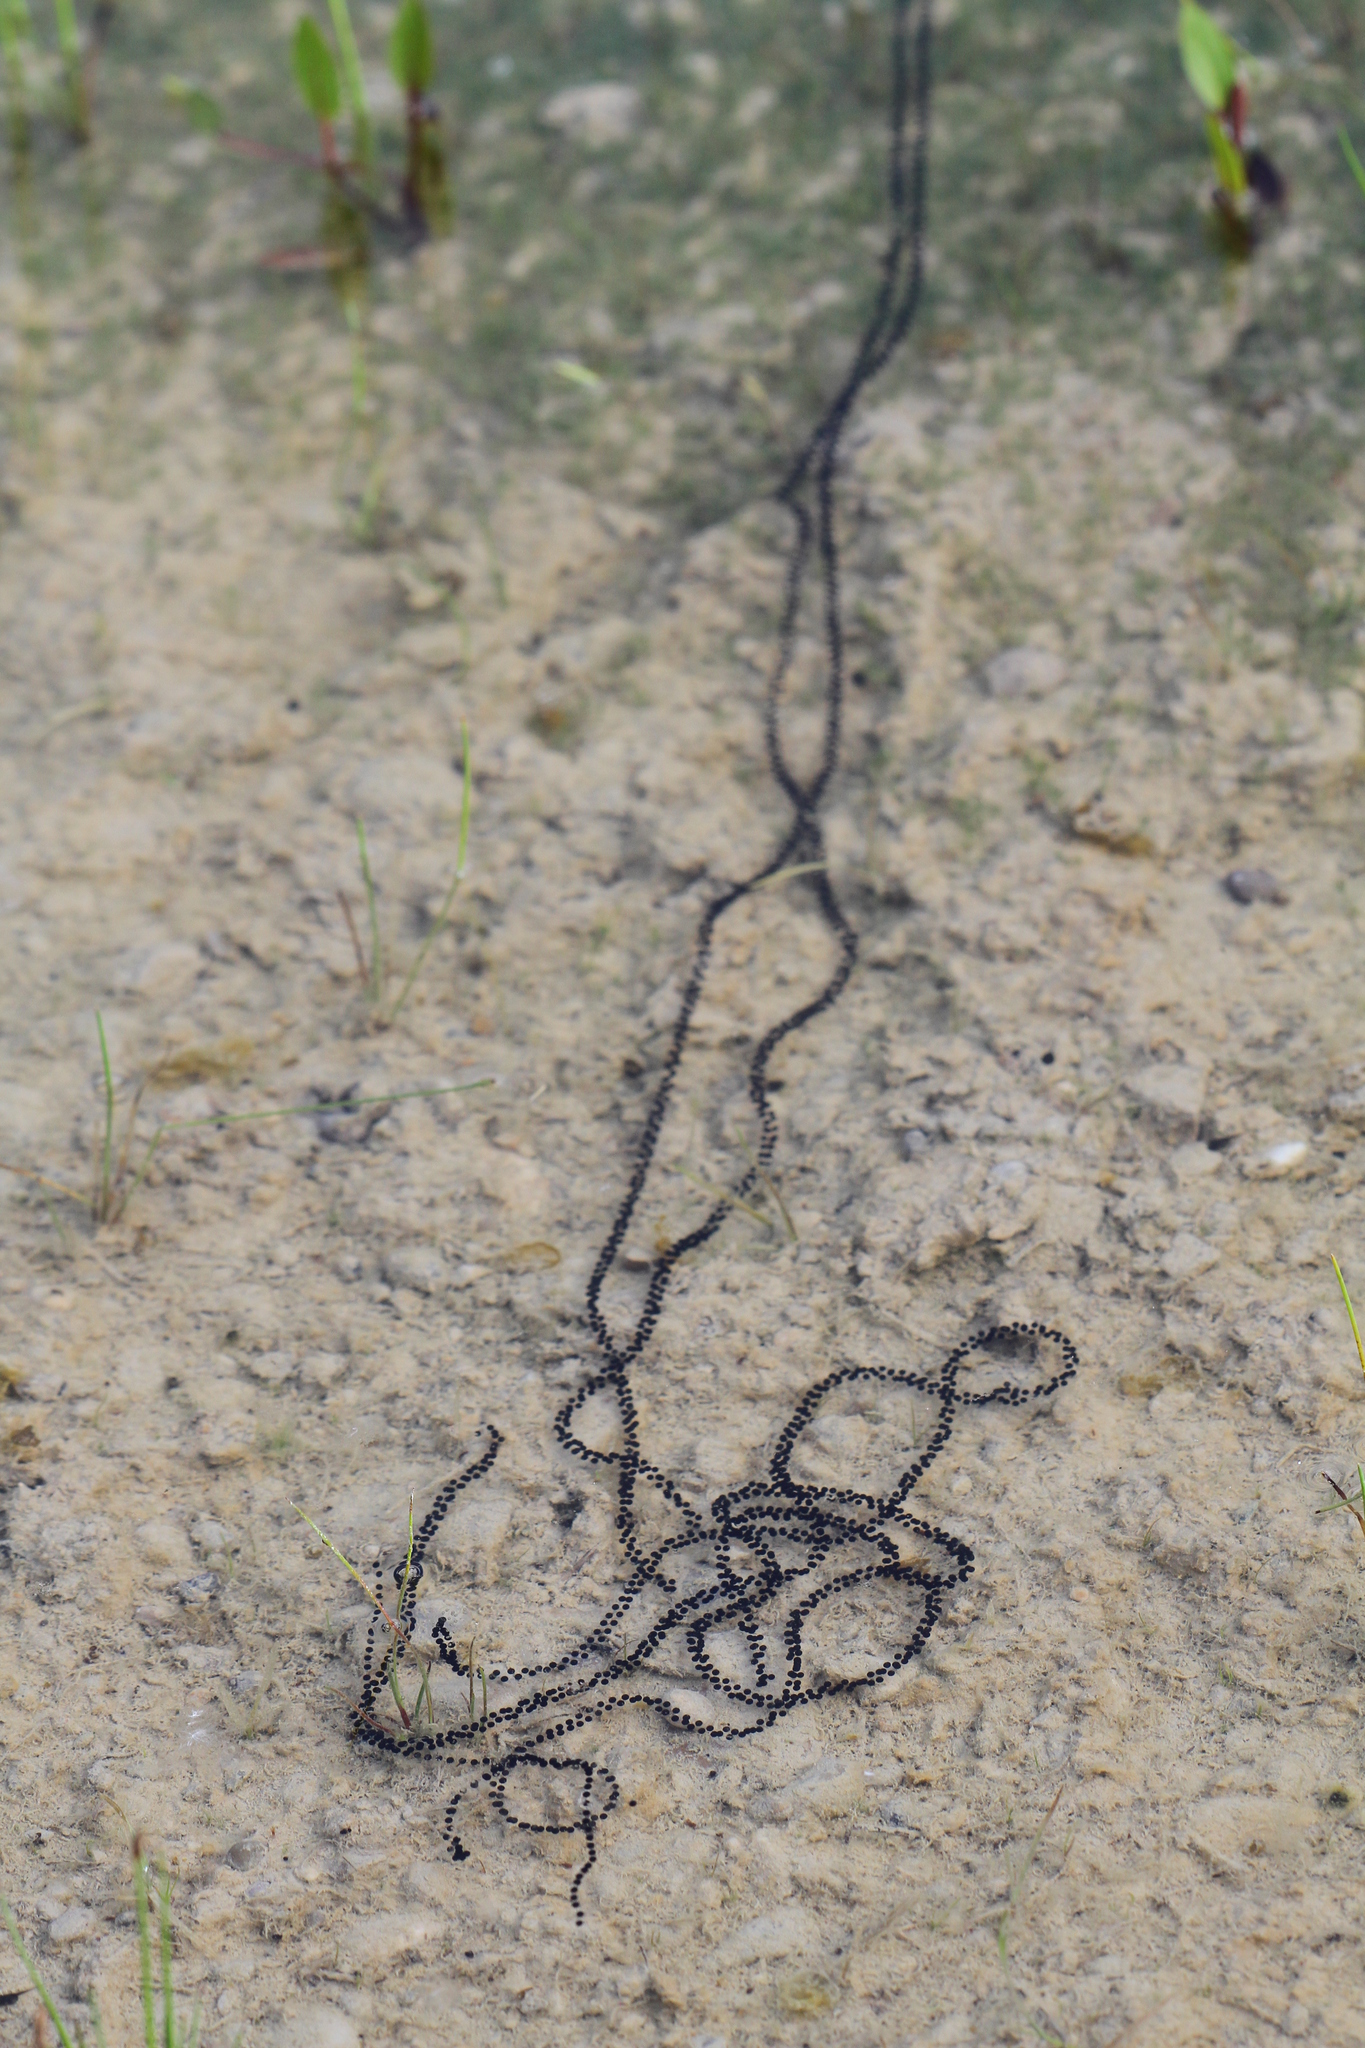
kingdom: Animalia
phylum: Chordata
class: Amphibia
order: Anura
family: Bufonidae
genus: Bufotes
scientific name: Bufotes viridis
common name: European green toad
